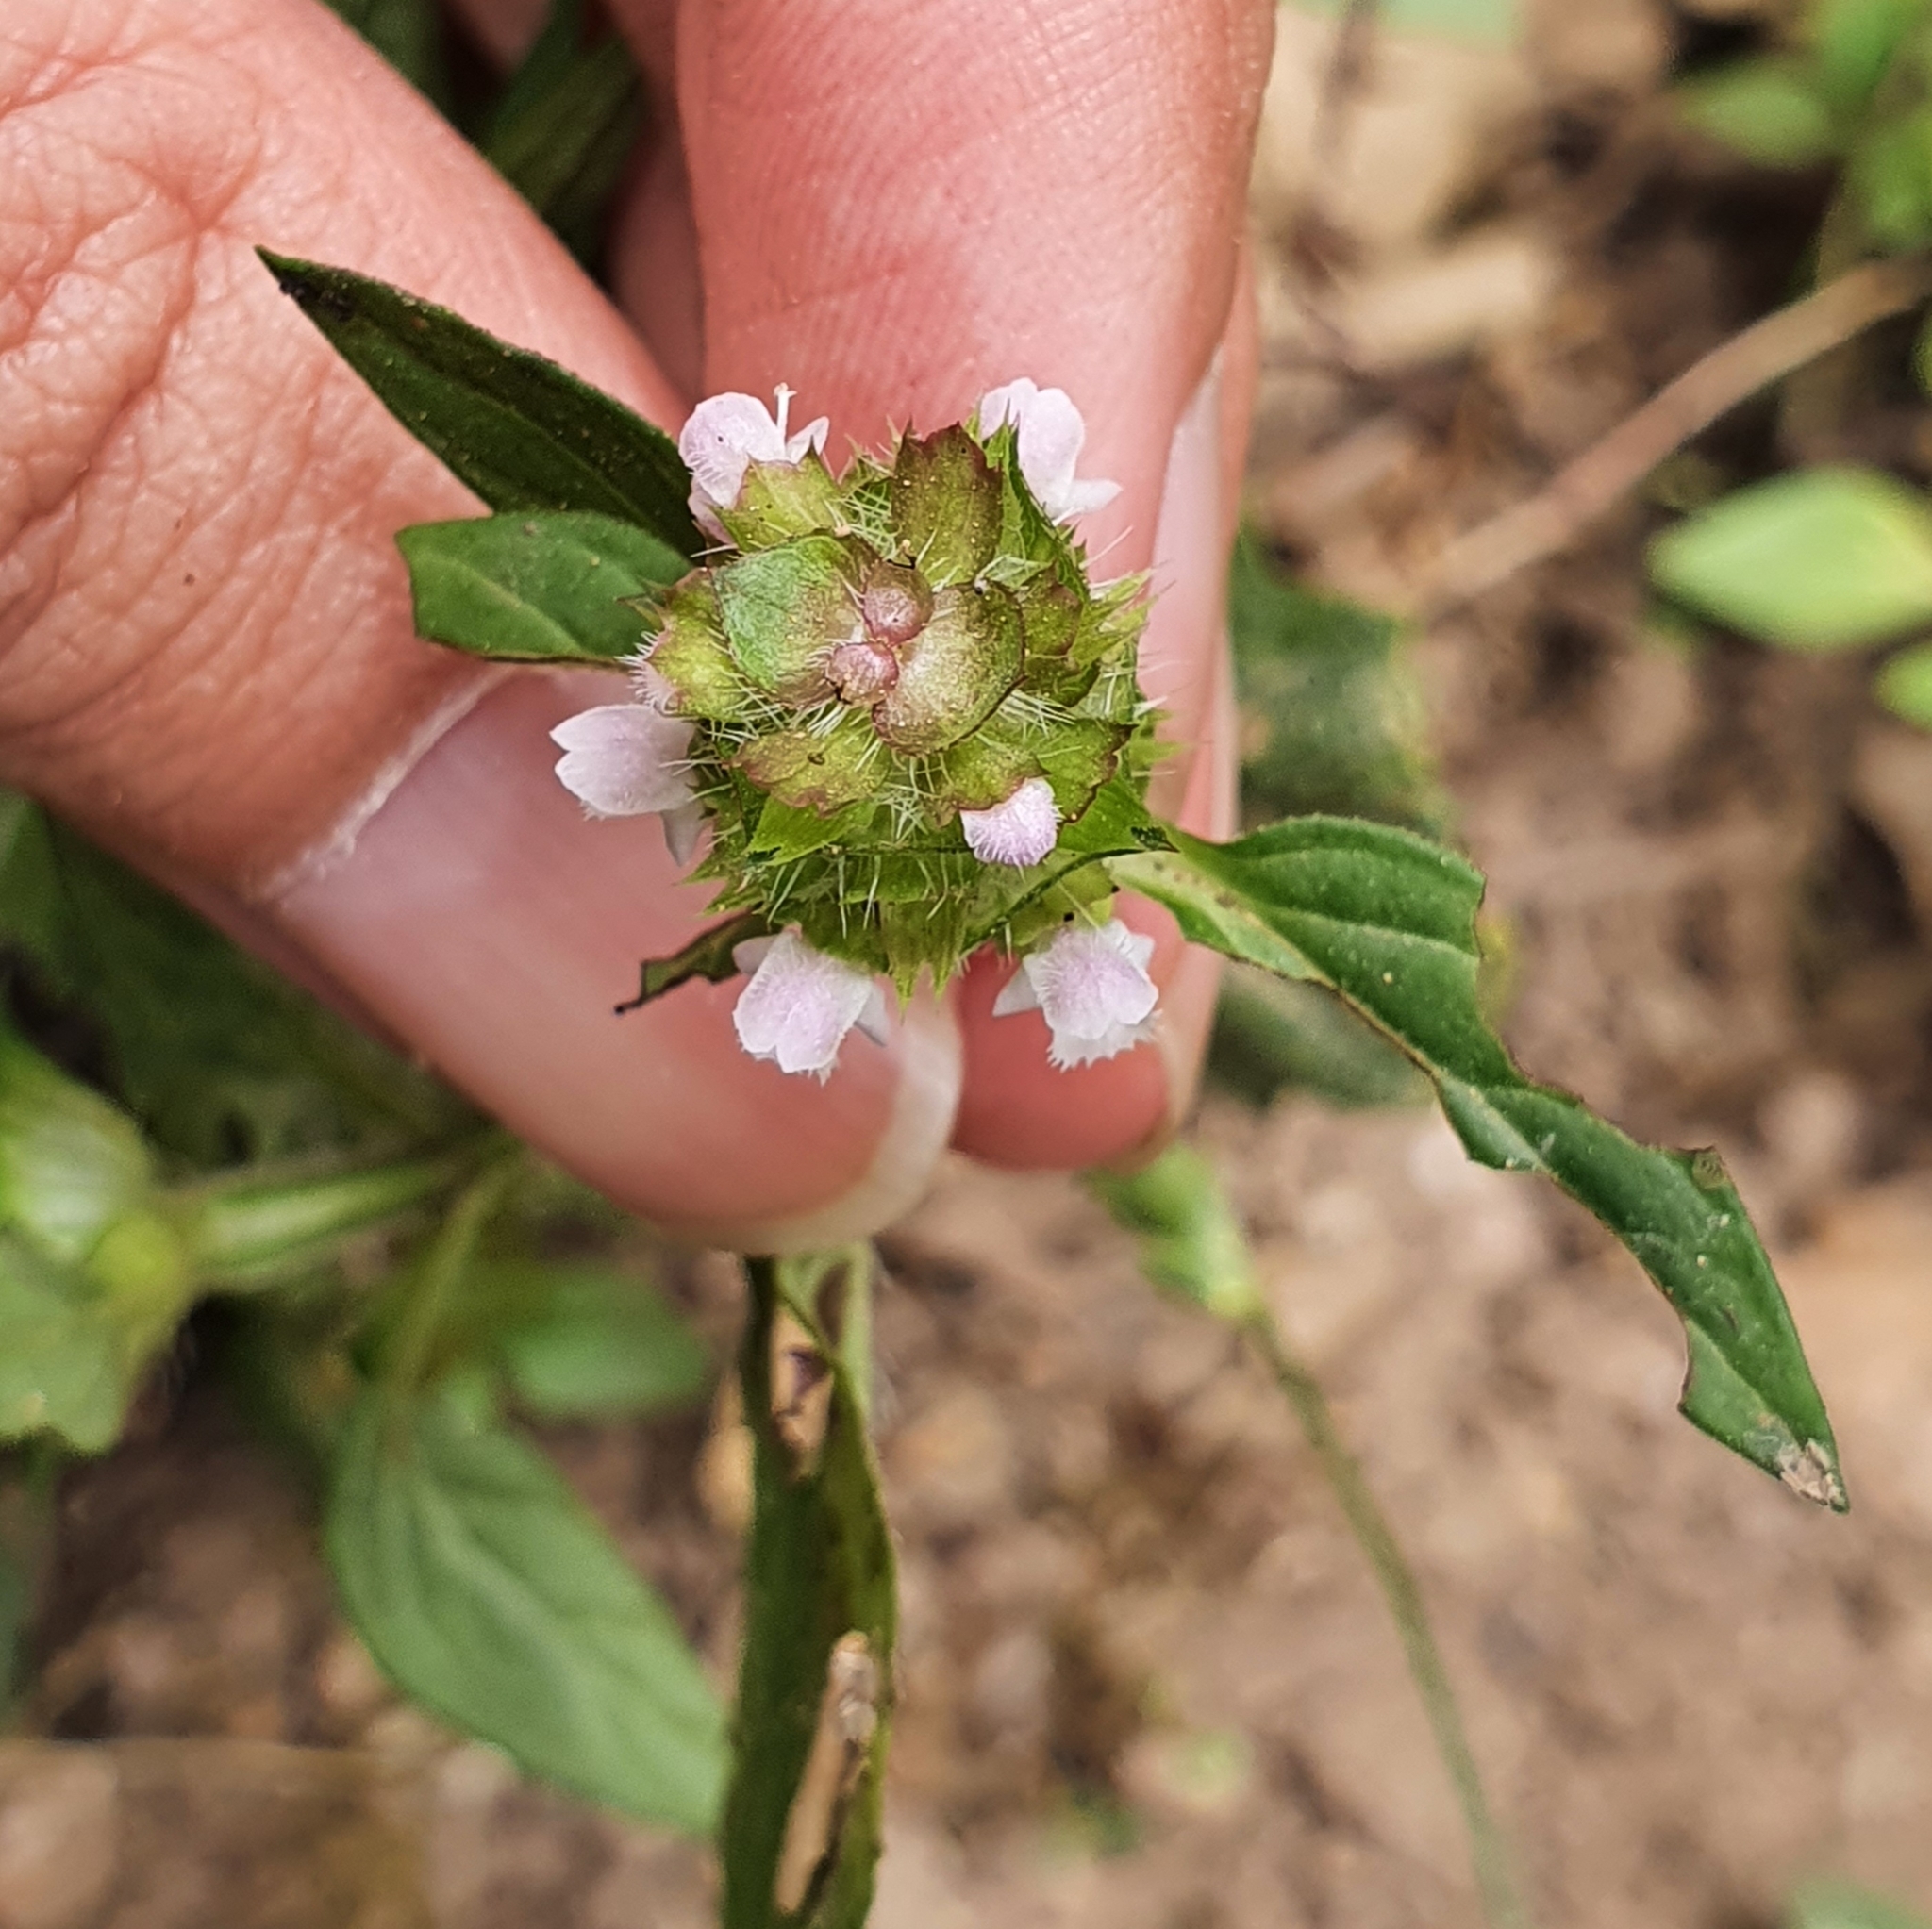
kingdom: Plantae
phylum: Tracheophyta
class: Magnoliopsida
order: Lamiales
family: Lamiaceae
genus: Prunella
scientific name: Prunella vulgaris
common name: Heal-all
